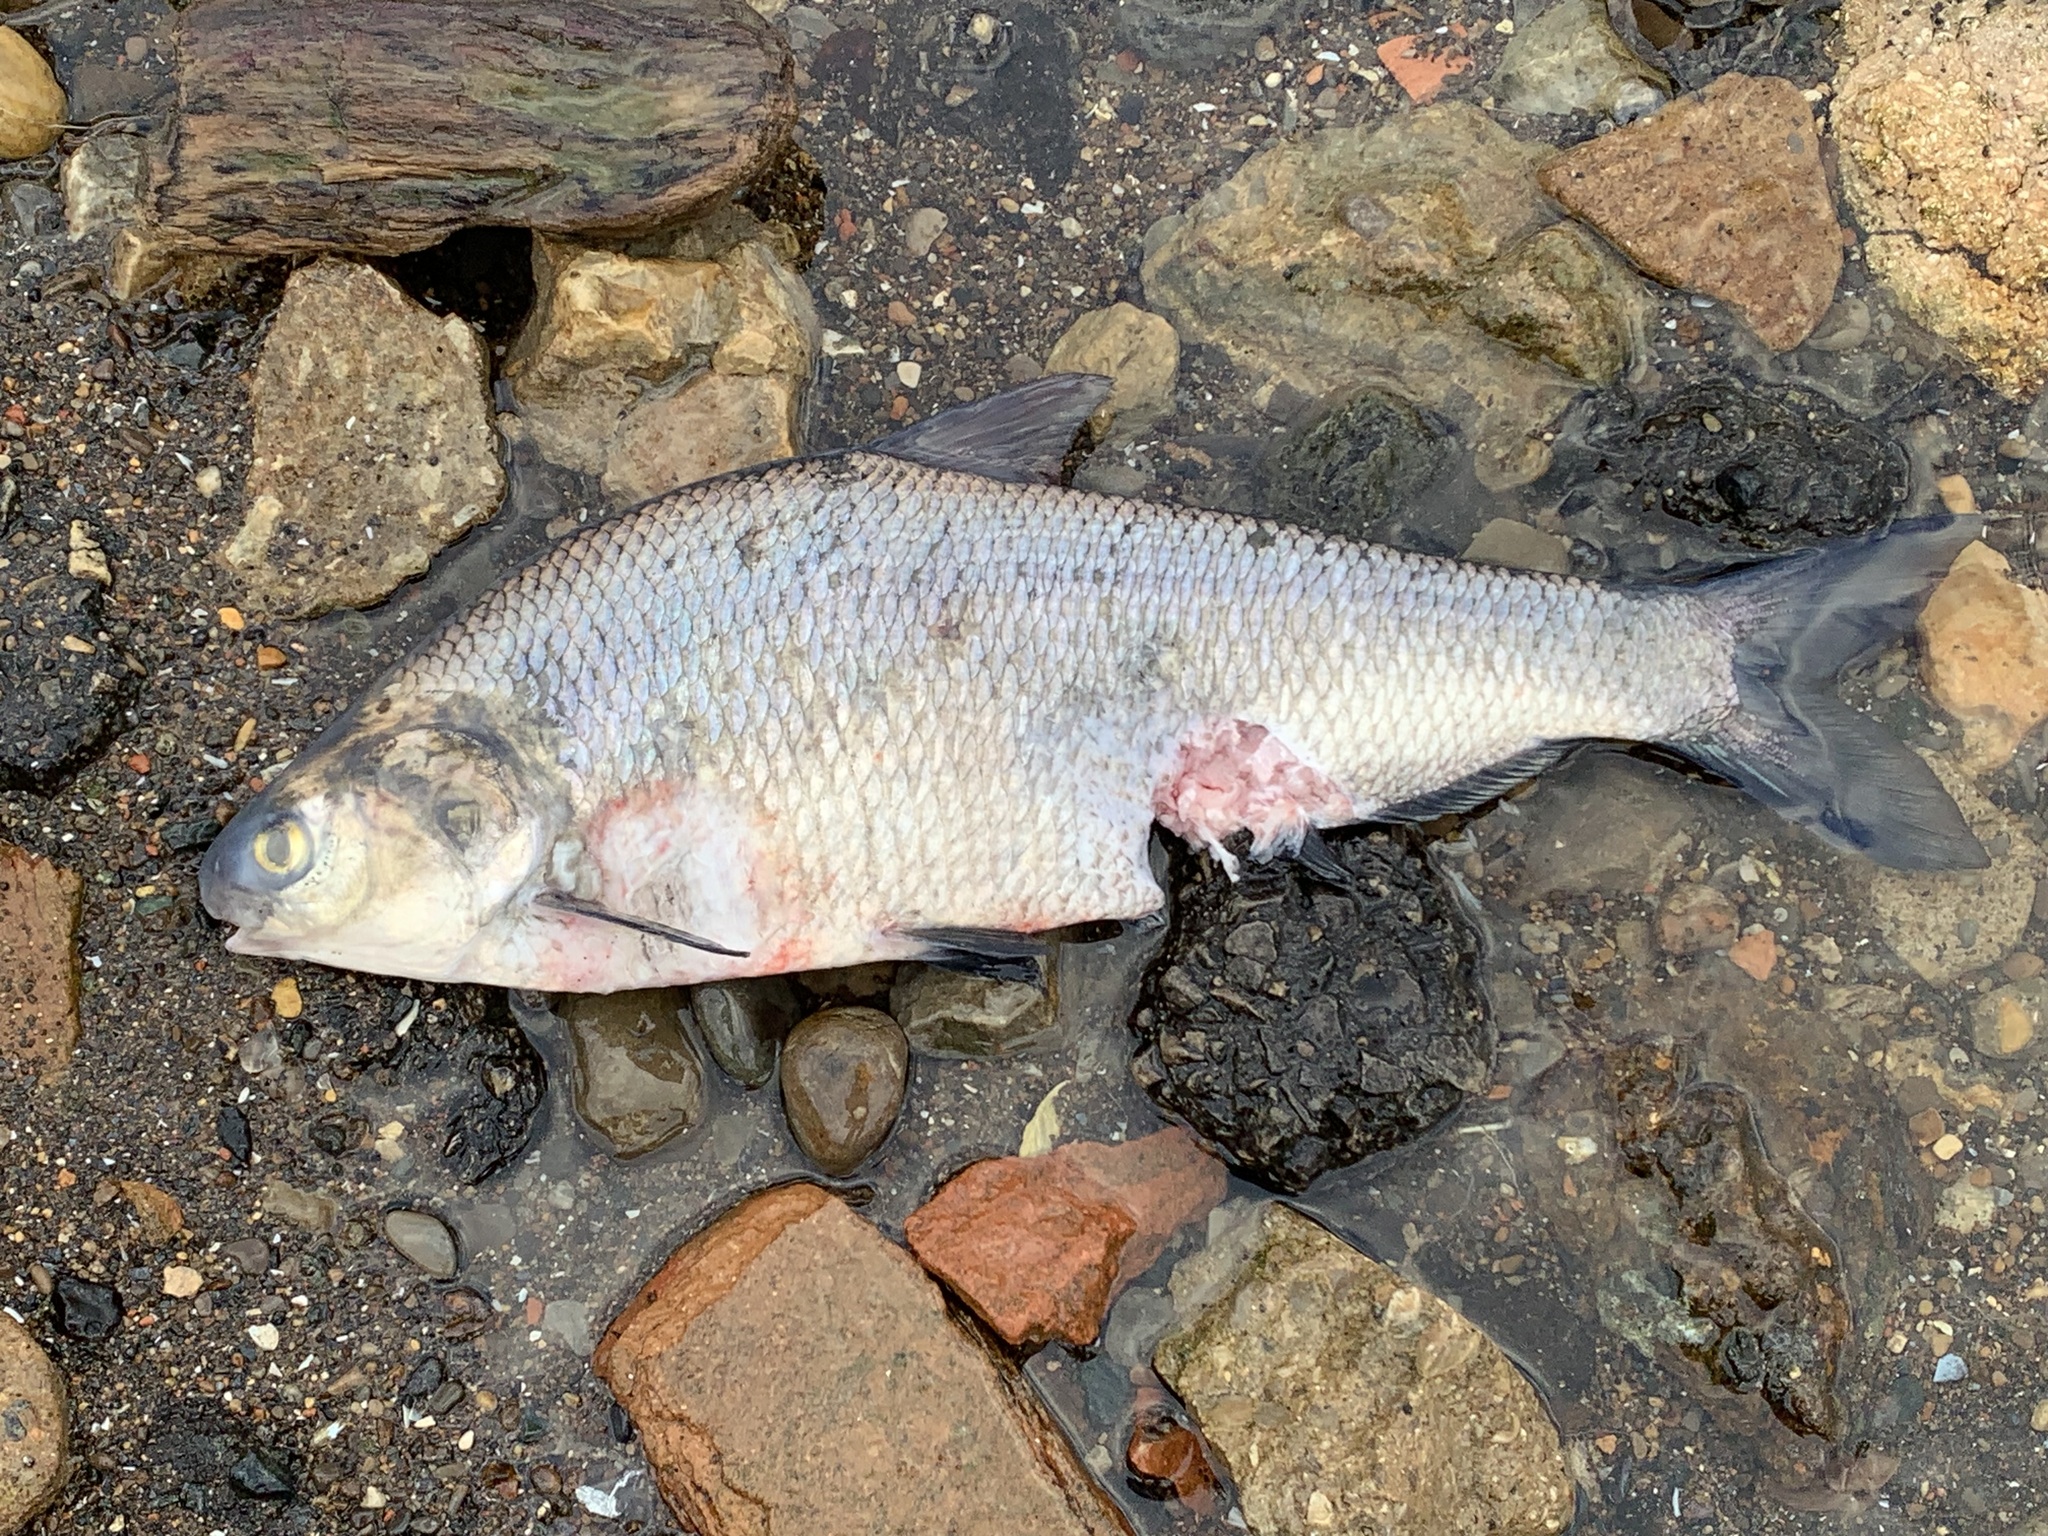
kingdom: Animalia
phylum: Chordata
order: Clupeiformes
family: Clupeidae
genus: Dorosoma
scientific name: Dorosoma cepedianum
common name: Gizzard shad
